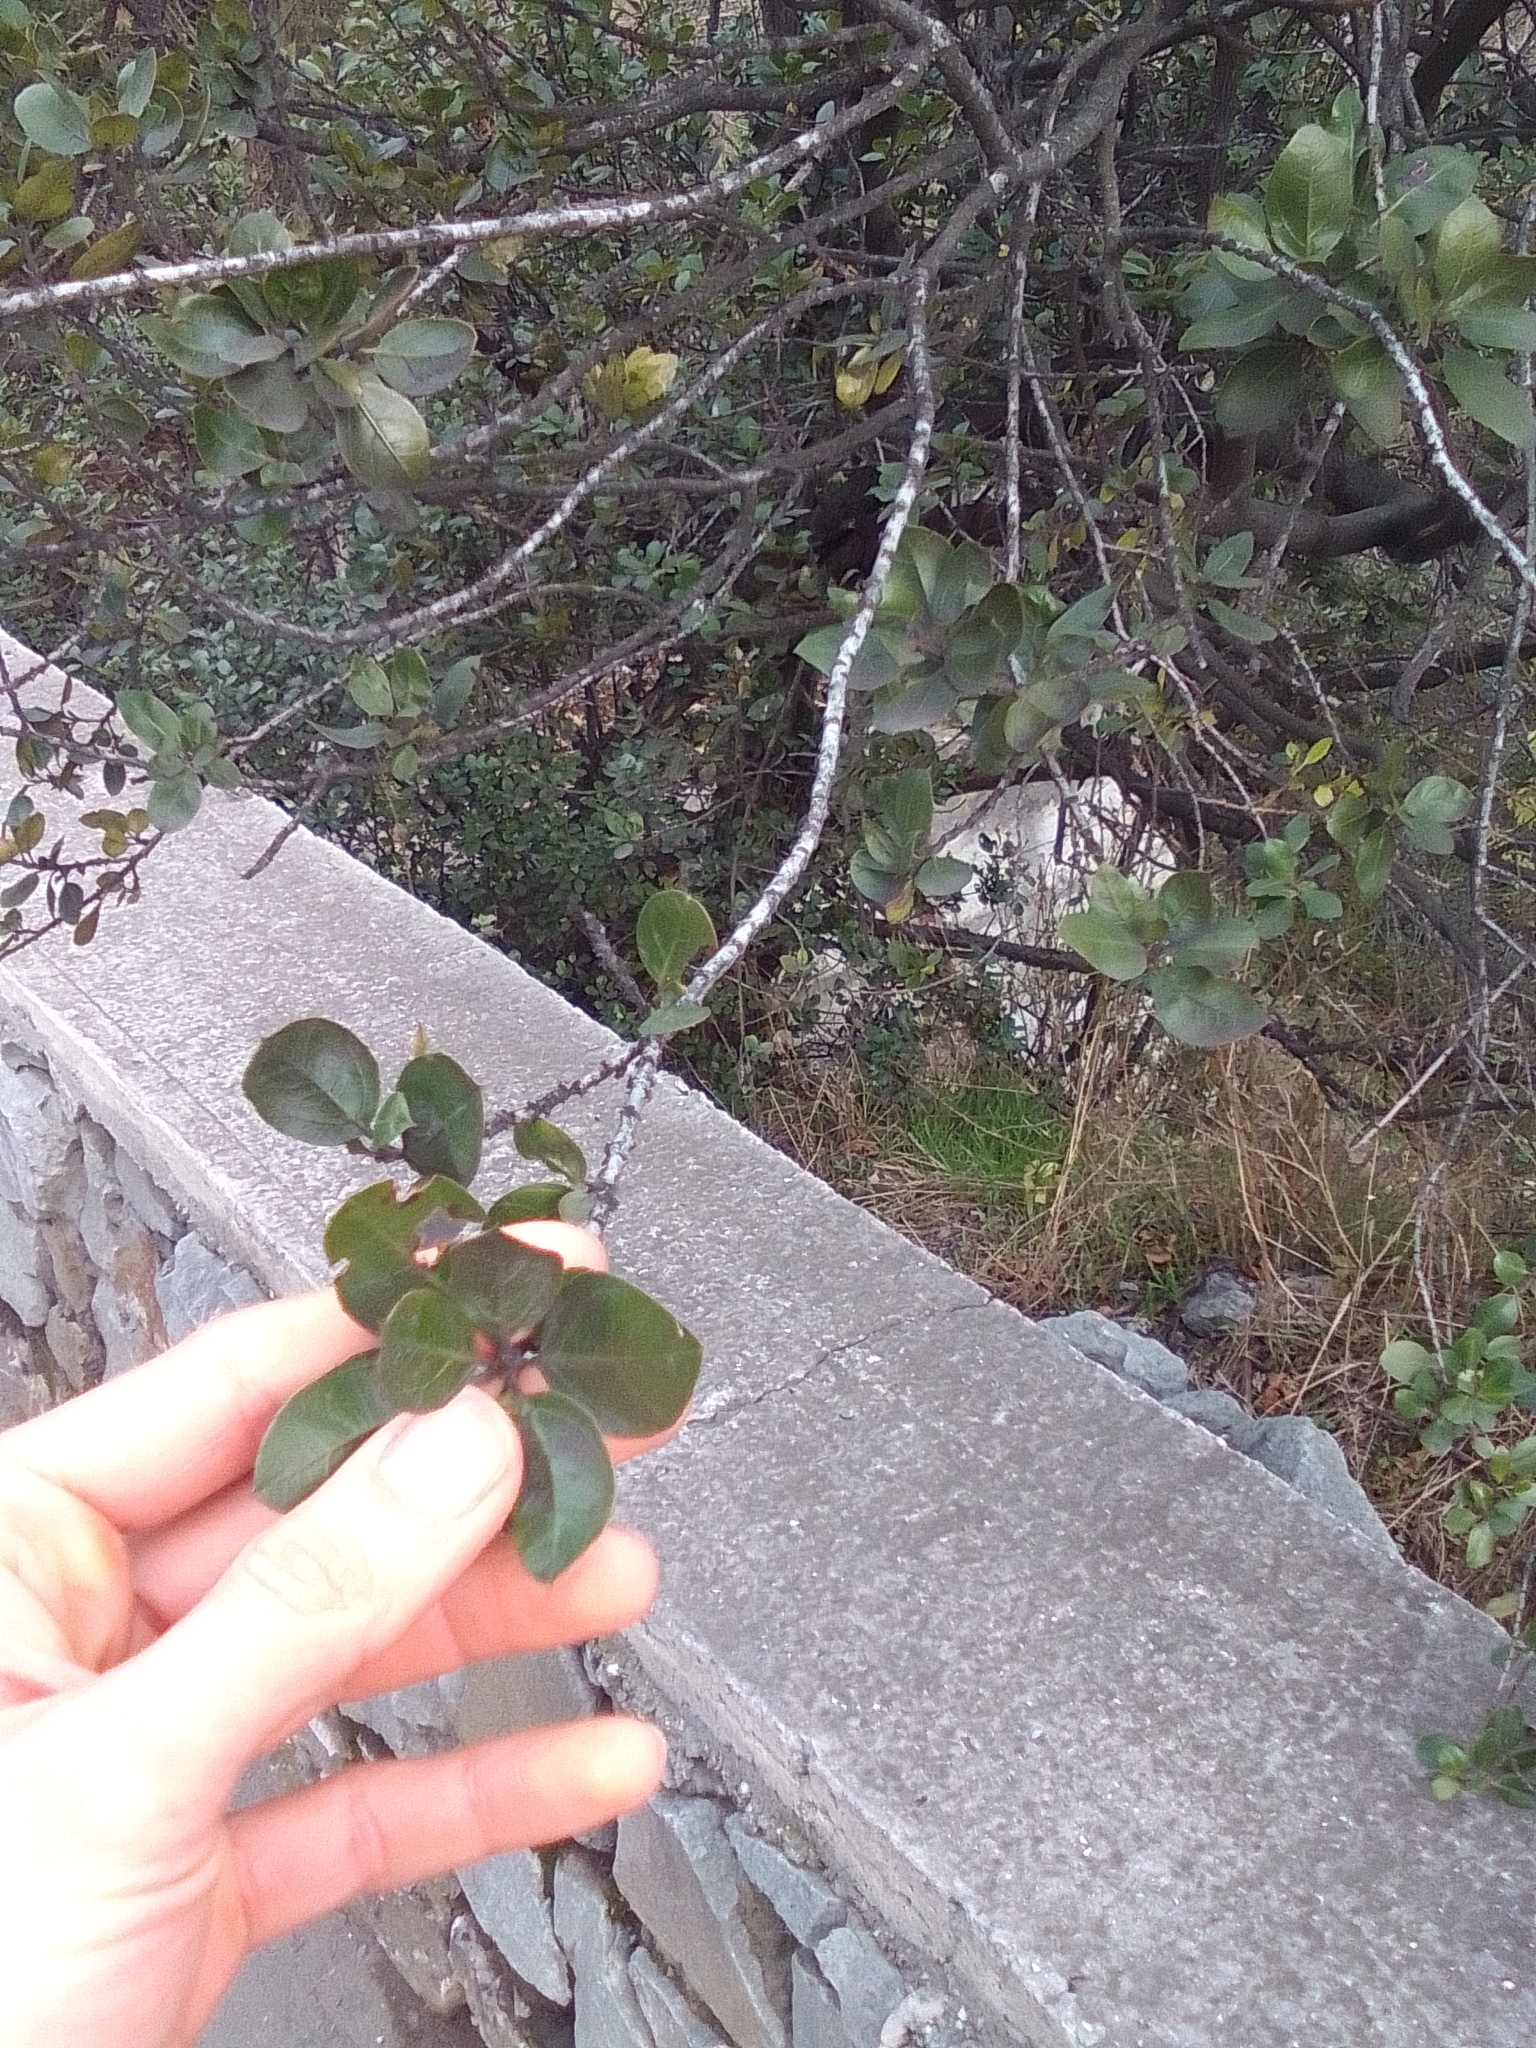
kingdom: Plantae
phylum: Tracheophyta
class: Magnoliopsida
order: Rosales
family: Rhamnaceae
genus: Rhamnus
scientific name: Rhamnus alaternus
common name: Mediterranean buckthorn
